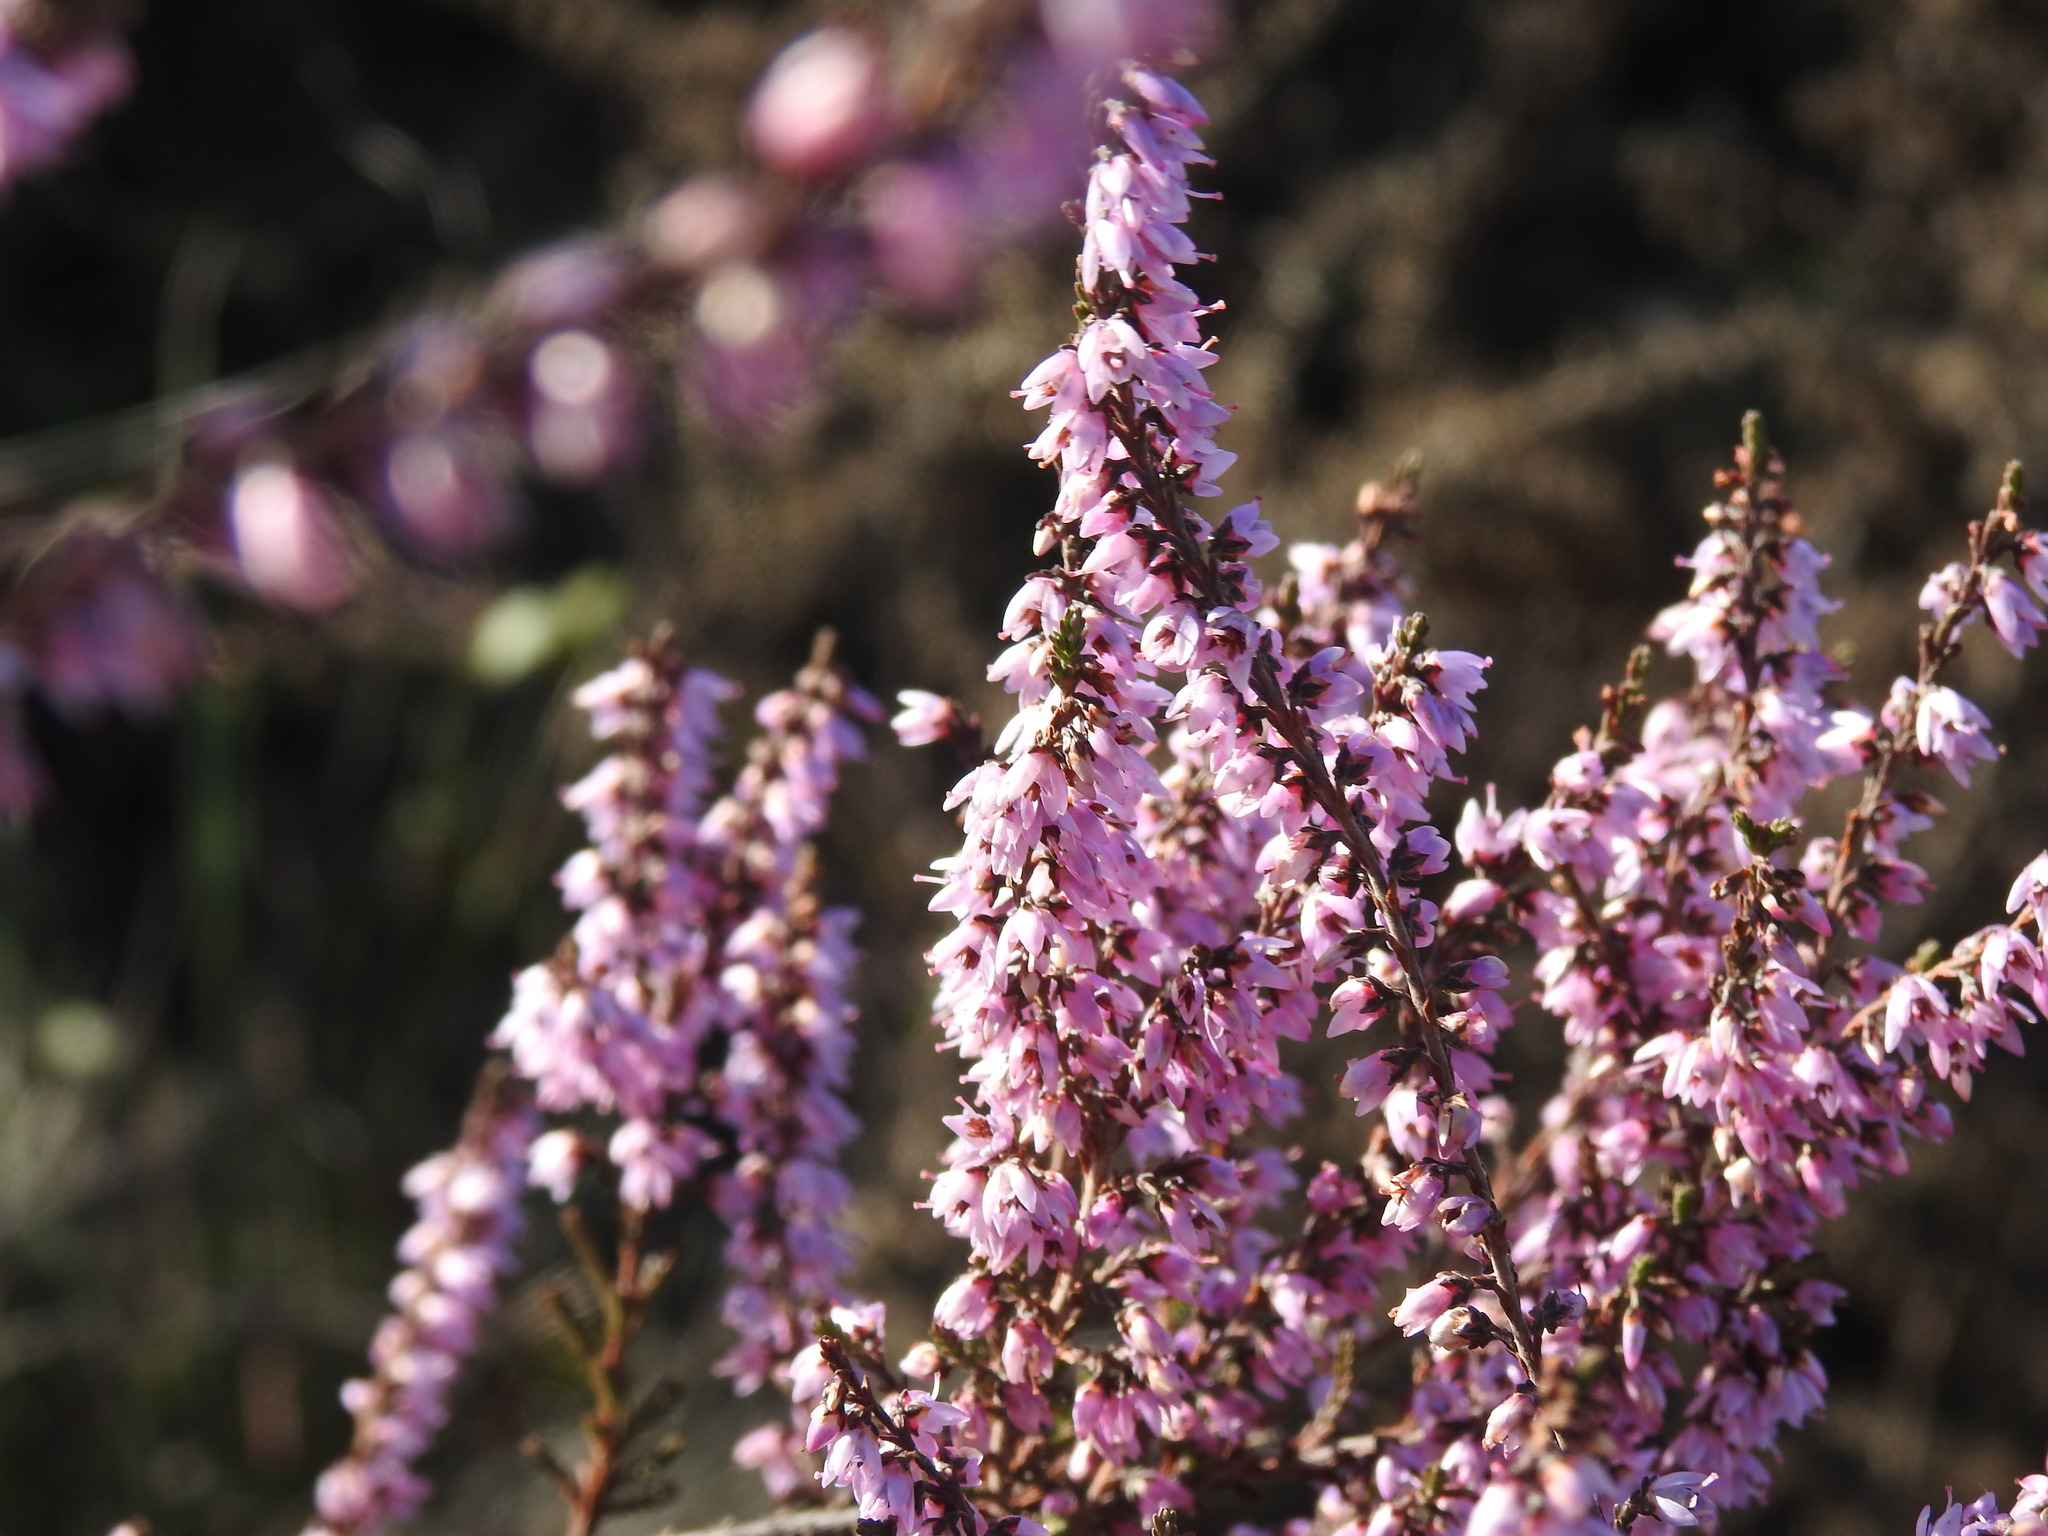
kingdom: Plantae
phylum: Tracheophyta
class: Magnoliopsida
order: Ericales
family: Ericaceae
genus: Calluna
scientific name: Calluna vulgaris
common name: Heather
